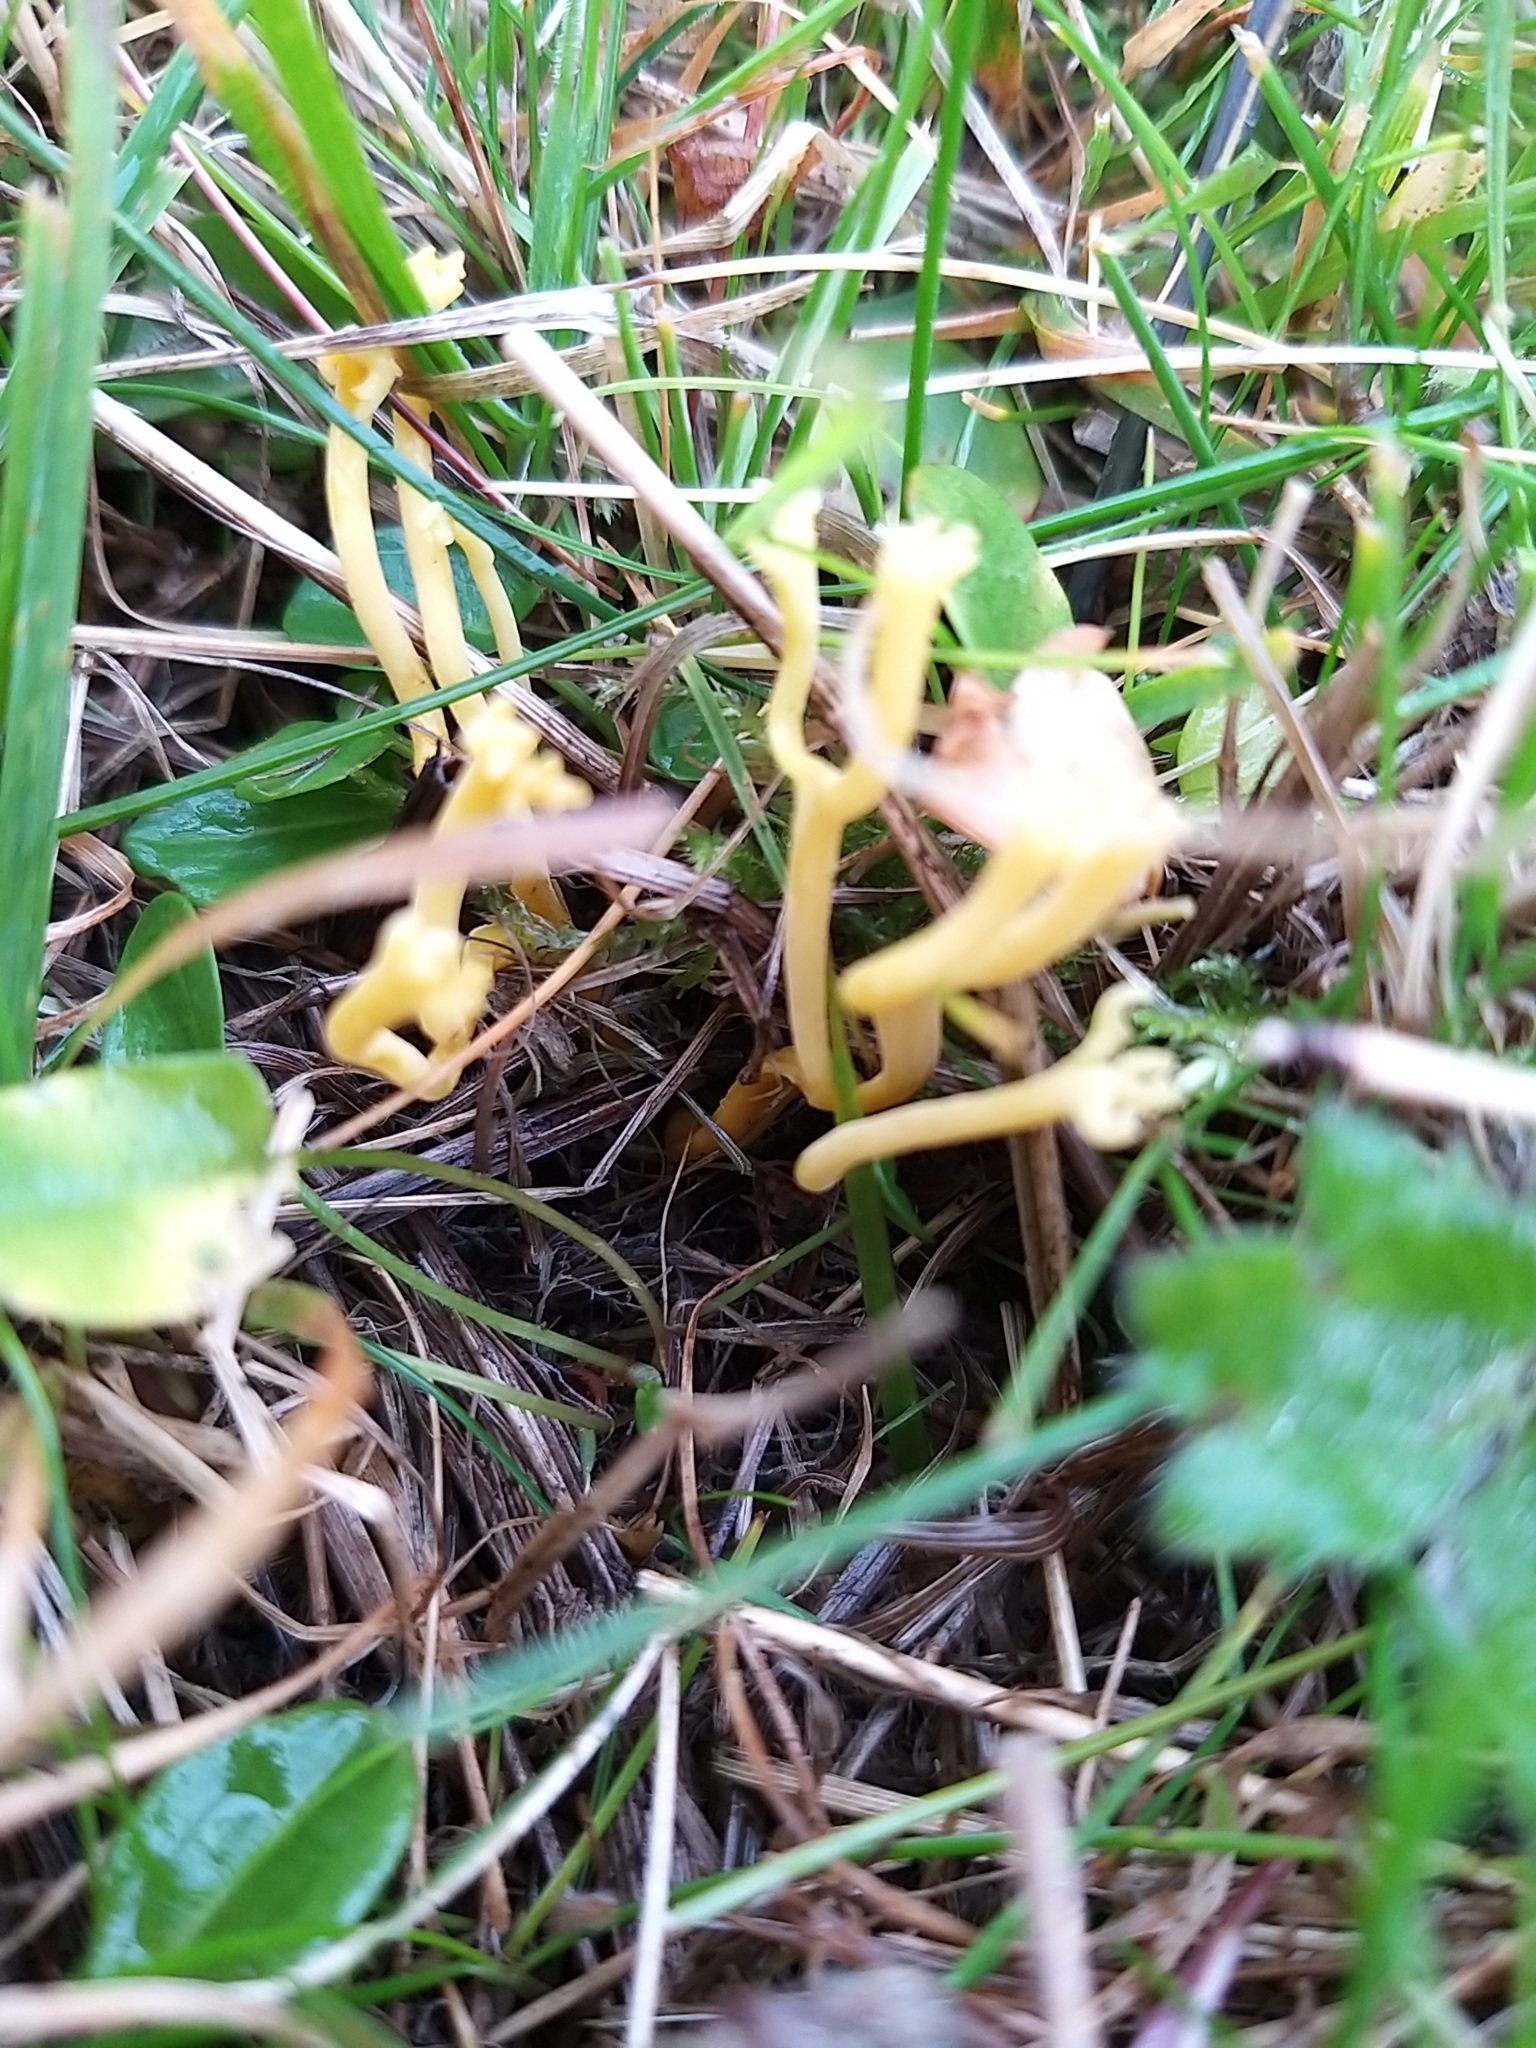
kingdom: Fungi
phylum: Basidiomycota
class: Agaricomycetes
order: Agaricales
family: Clavariaceae
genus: Clavulinopsis
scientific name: Clavulinopsis corniculata
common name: Meadow coral
